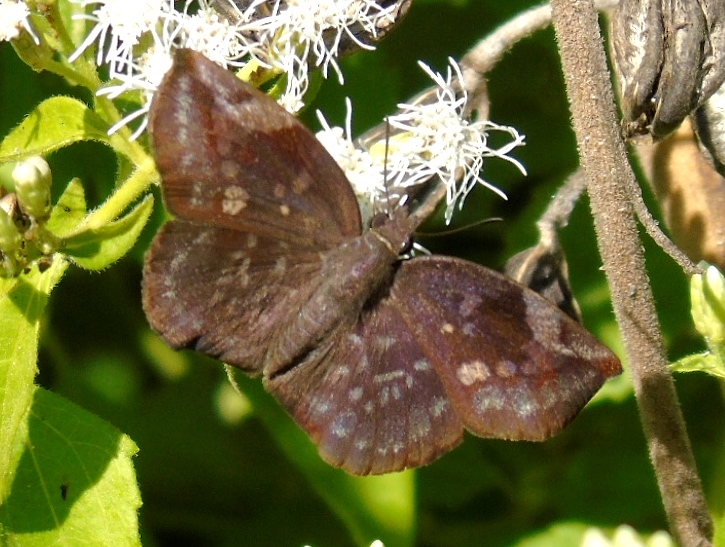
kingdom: Animalia
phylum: Arthropoda
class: Insecta
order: Lepidoptera
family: Hesperiidae
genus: Achlyodes
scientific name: Achlyodes thraso
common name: Sickle-winged skipper
